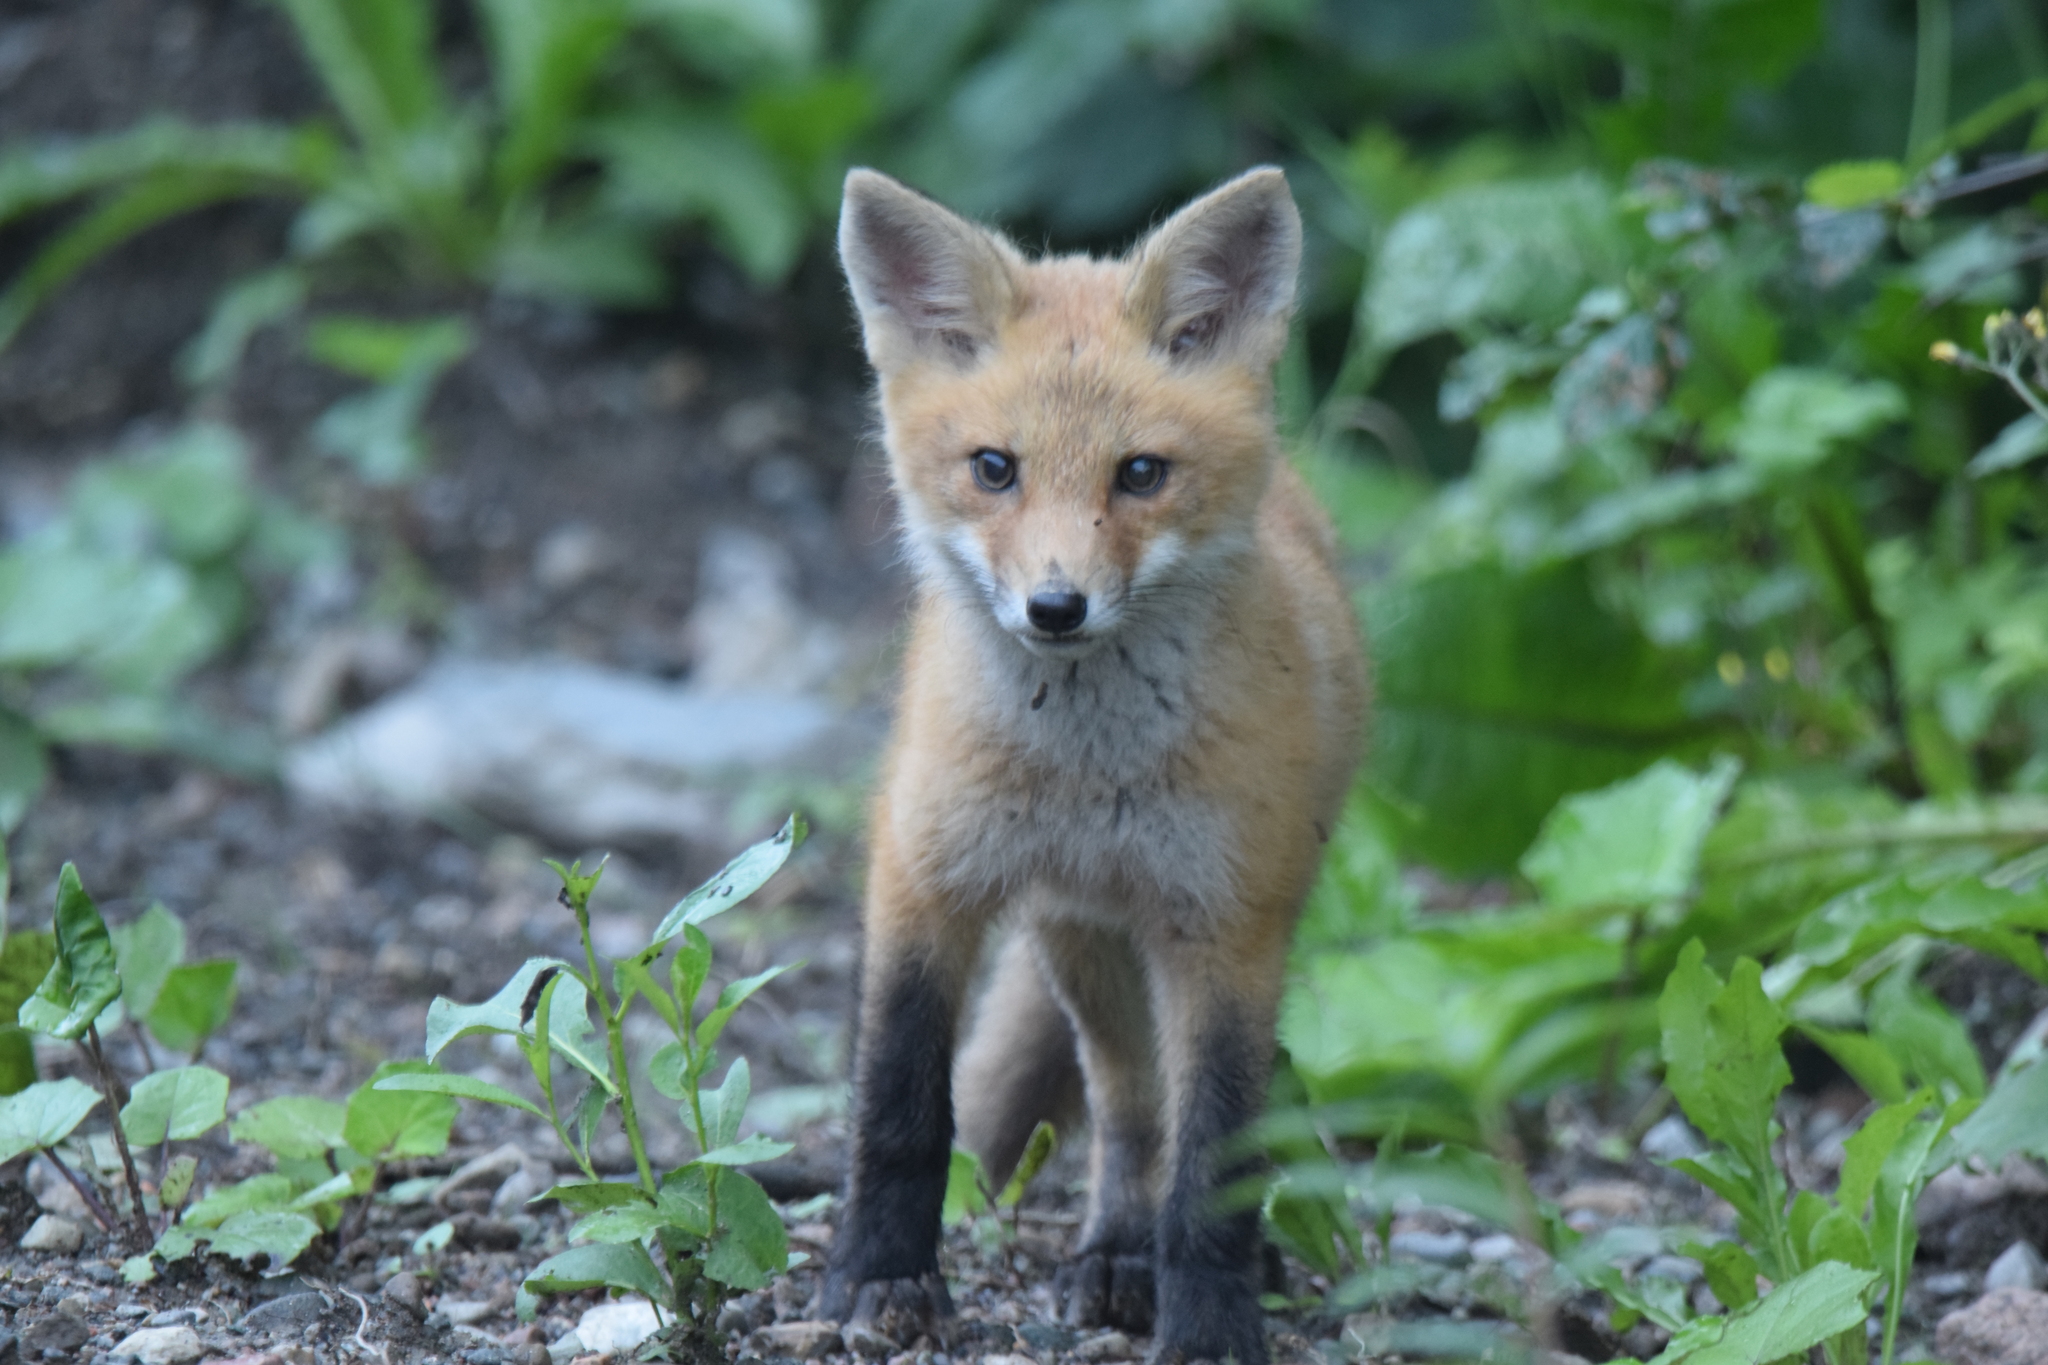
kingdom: Animalia
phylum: Chordata
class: Mammalia
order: Carnivora
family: Canidae
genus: Vulpes
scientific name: Vulpes vulpes
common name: Red fox
